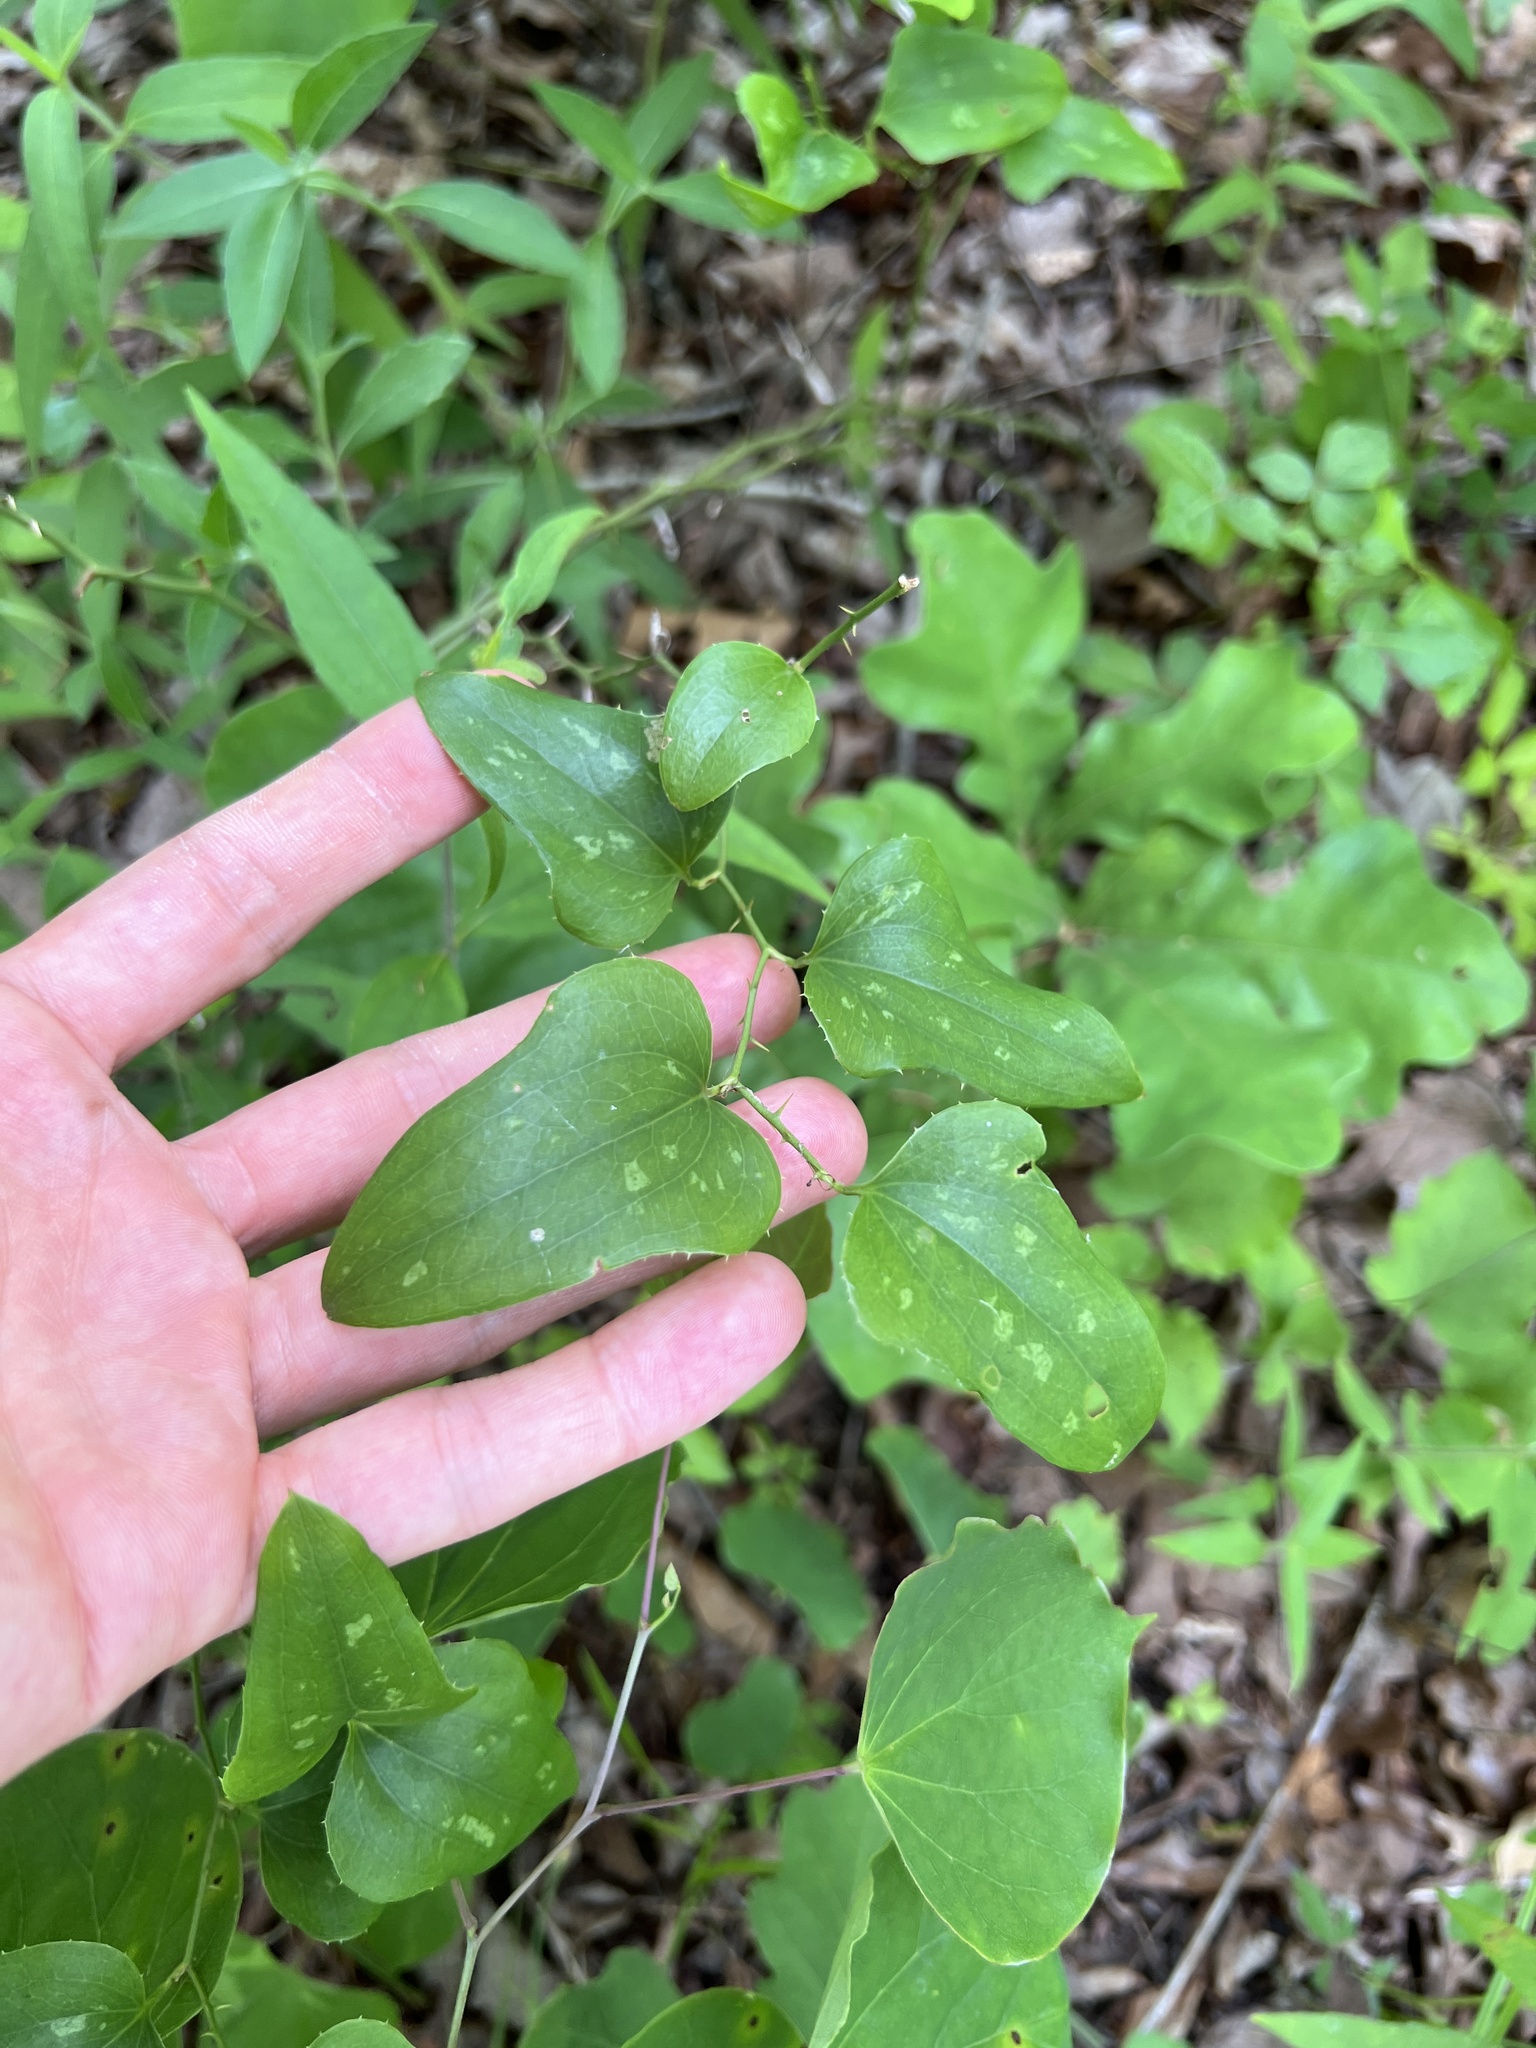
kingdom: Plantae
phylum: Tracheophyta
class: Liliopsida
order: Liliales
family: Smilacaceae
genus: Smilax
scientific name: Smilax bona-nox
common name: Catbrier
